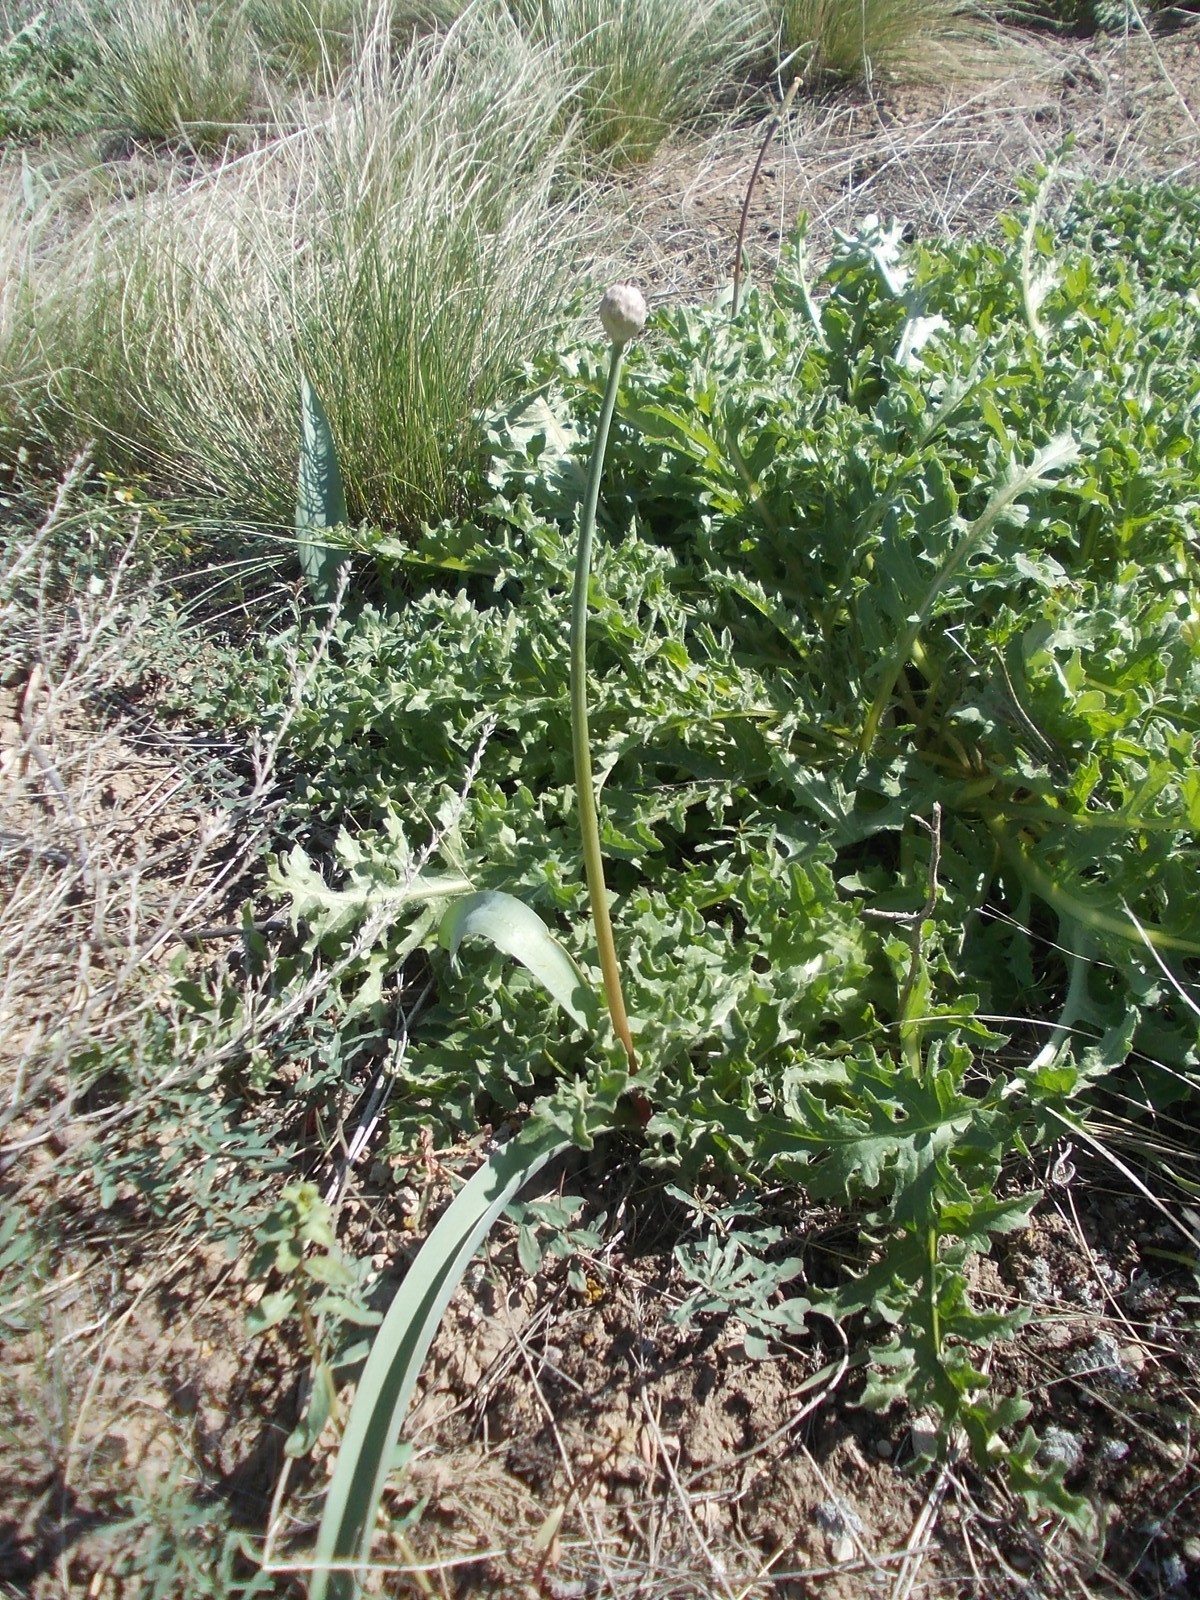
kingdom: Plantae
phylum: Tracheophyta
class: Liliopsida
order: Asparagales
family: Amaryllidaceae
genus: Allium
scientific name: Allium tulipifolium
